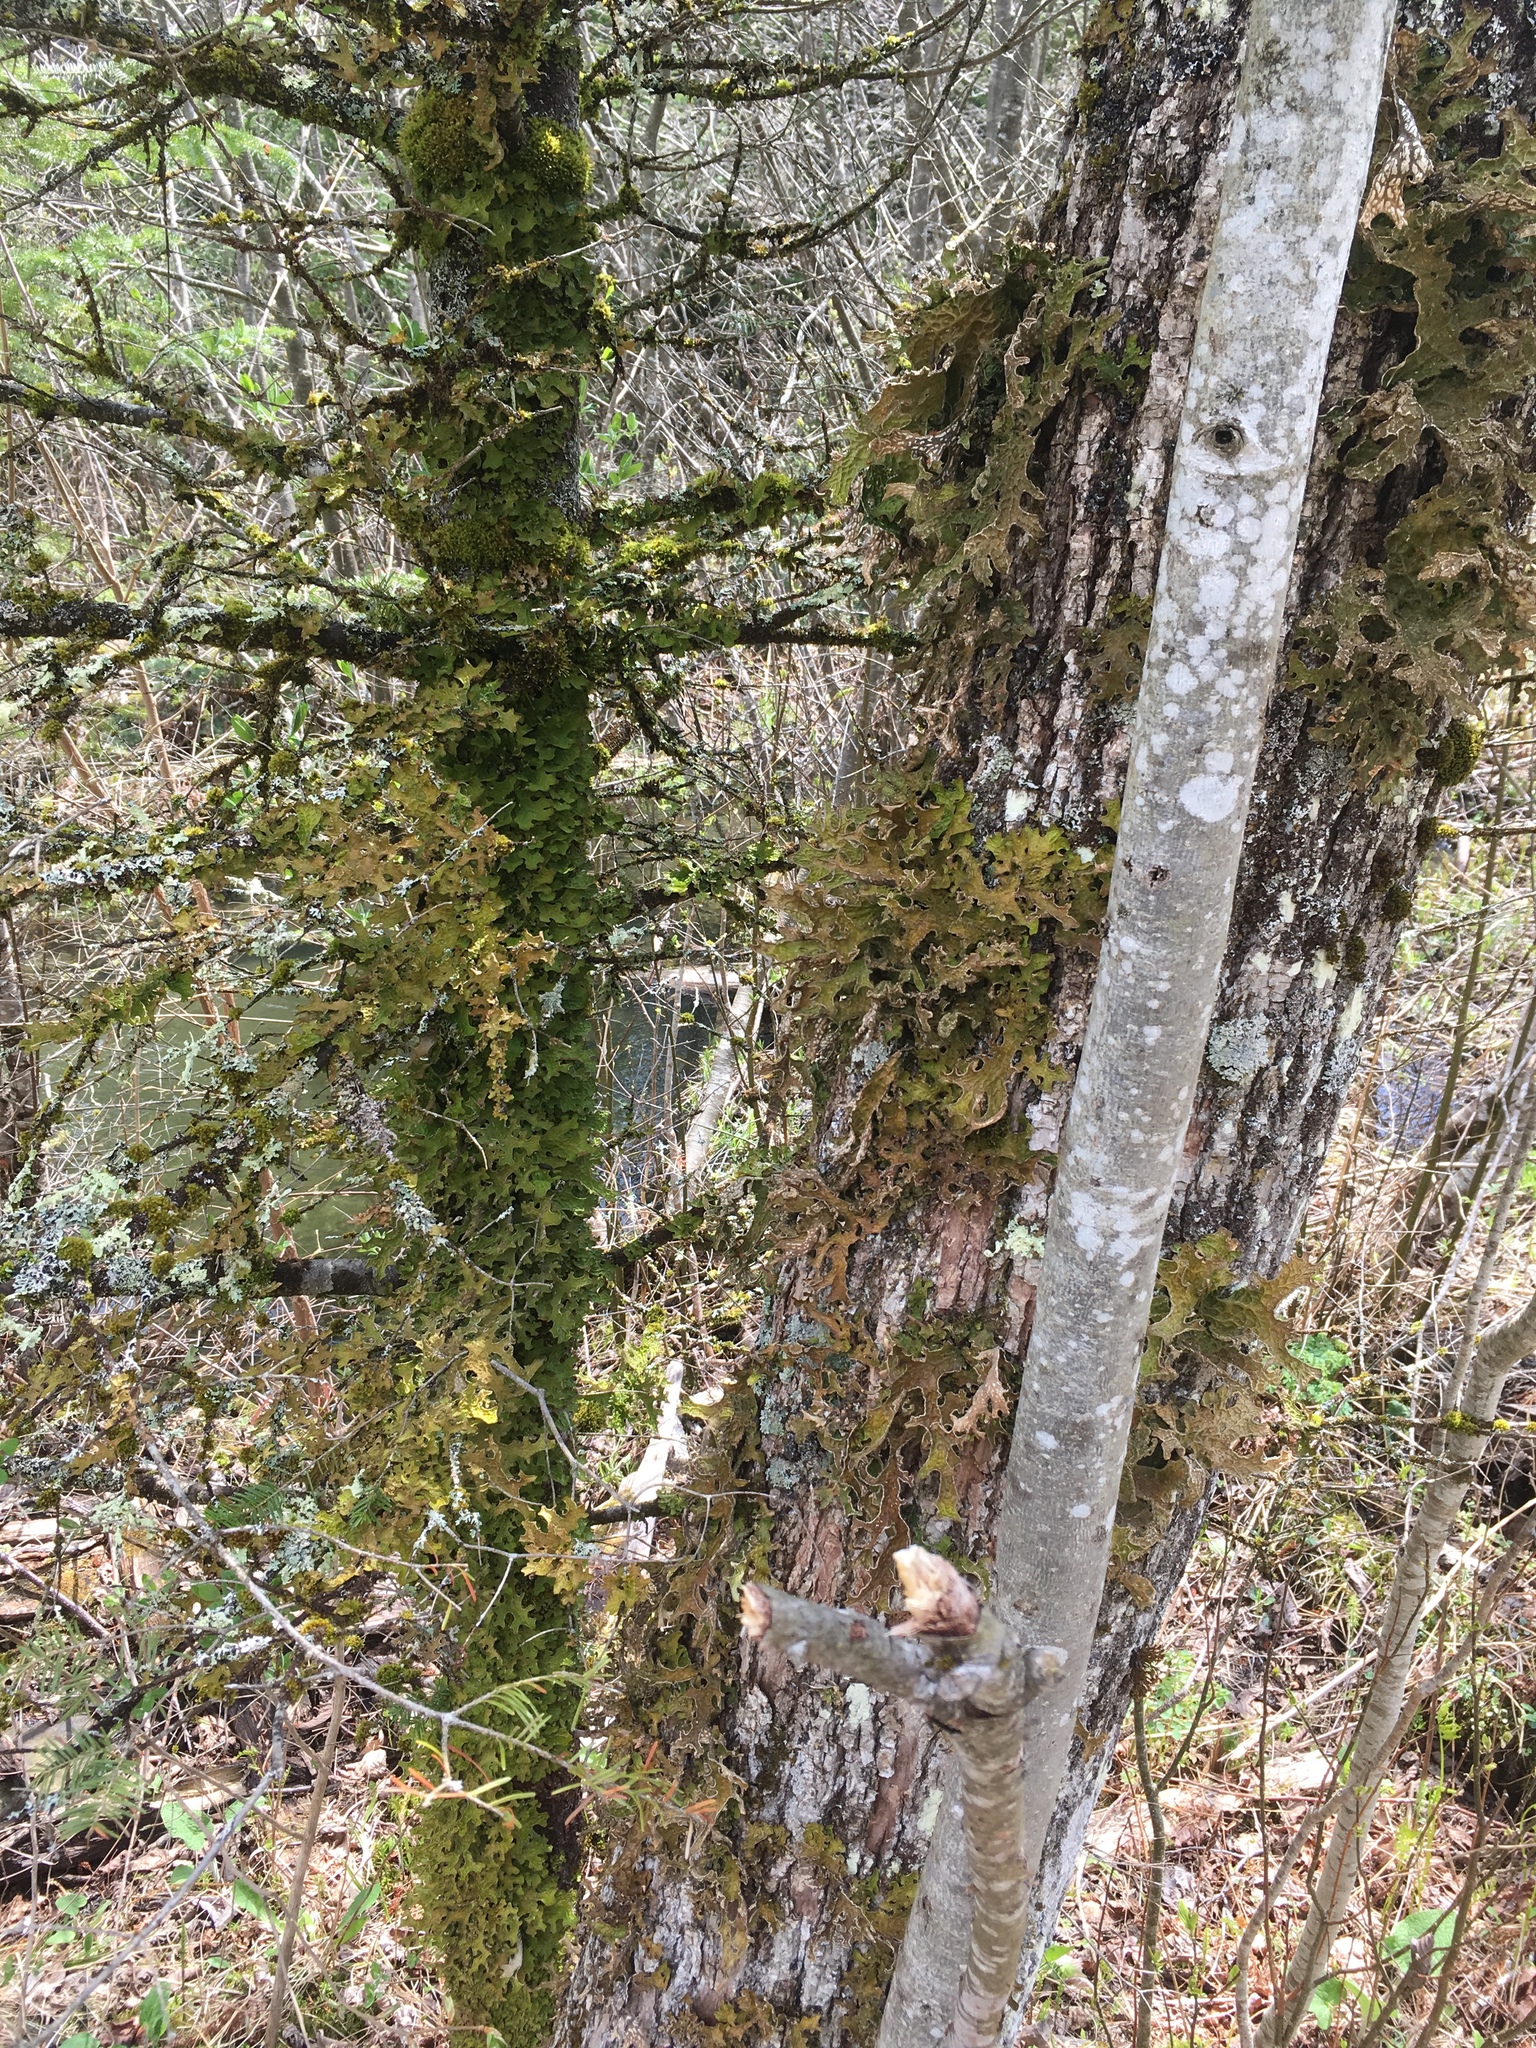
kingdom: Fungi
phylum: Ascomycota
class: Lecanoromycetes
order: Peltigerales
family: Lobariaceae
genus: Lobaria
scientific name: Lobaria pulmonaria
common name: Lungwort
